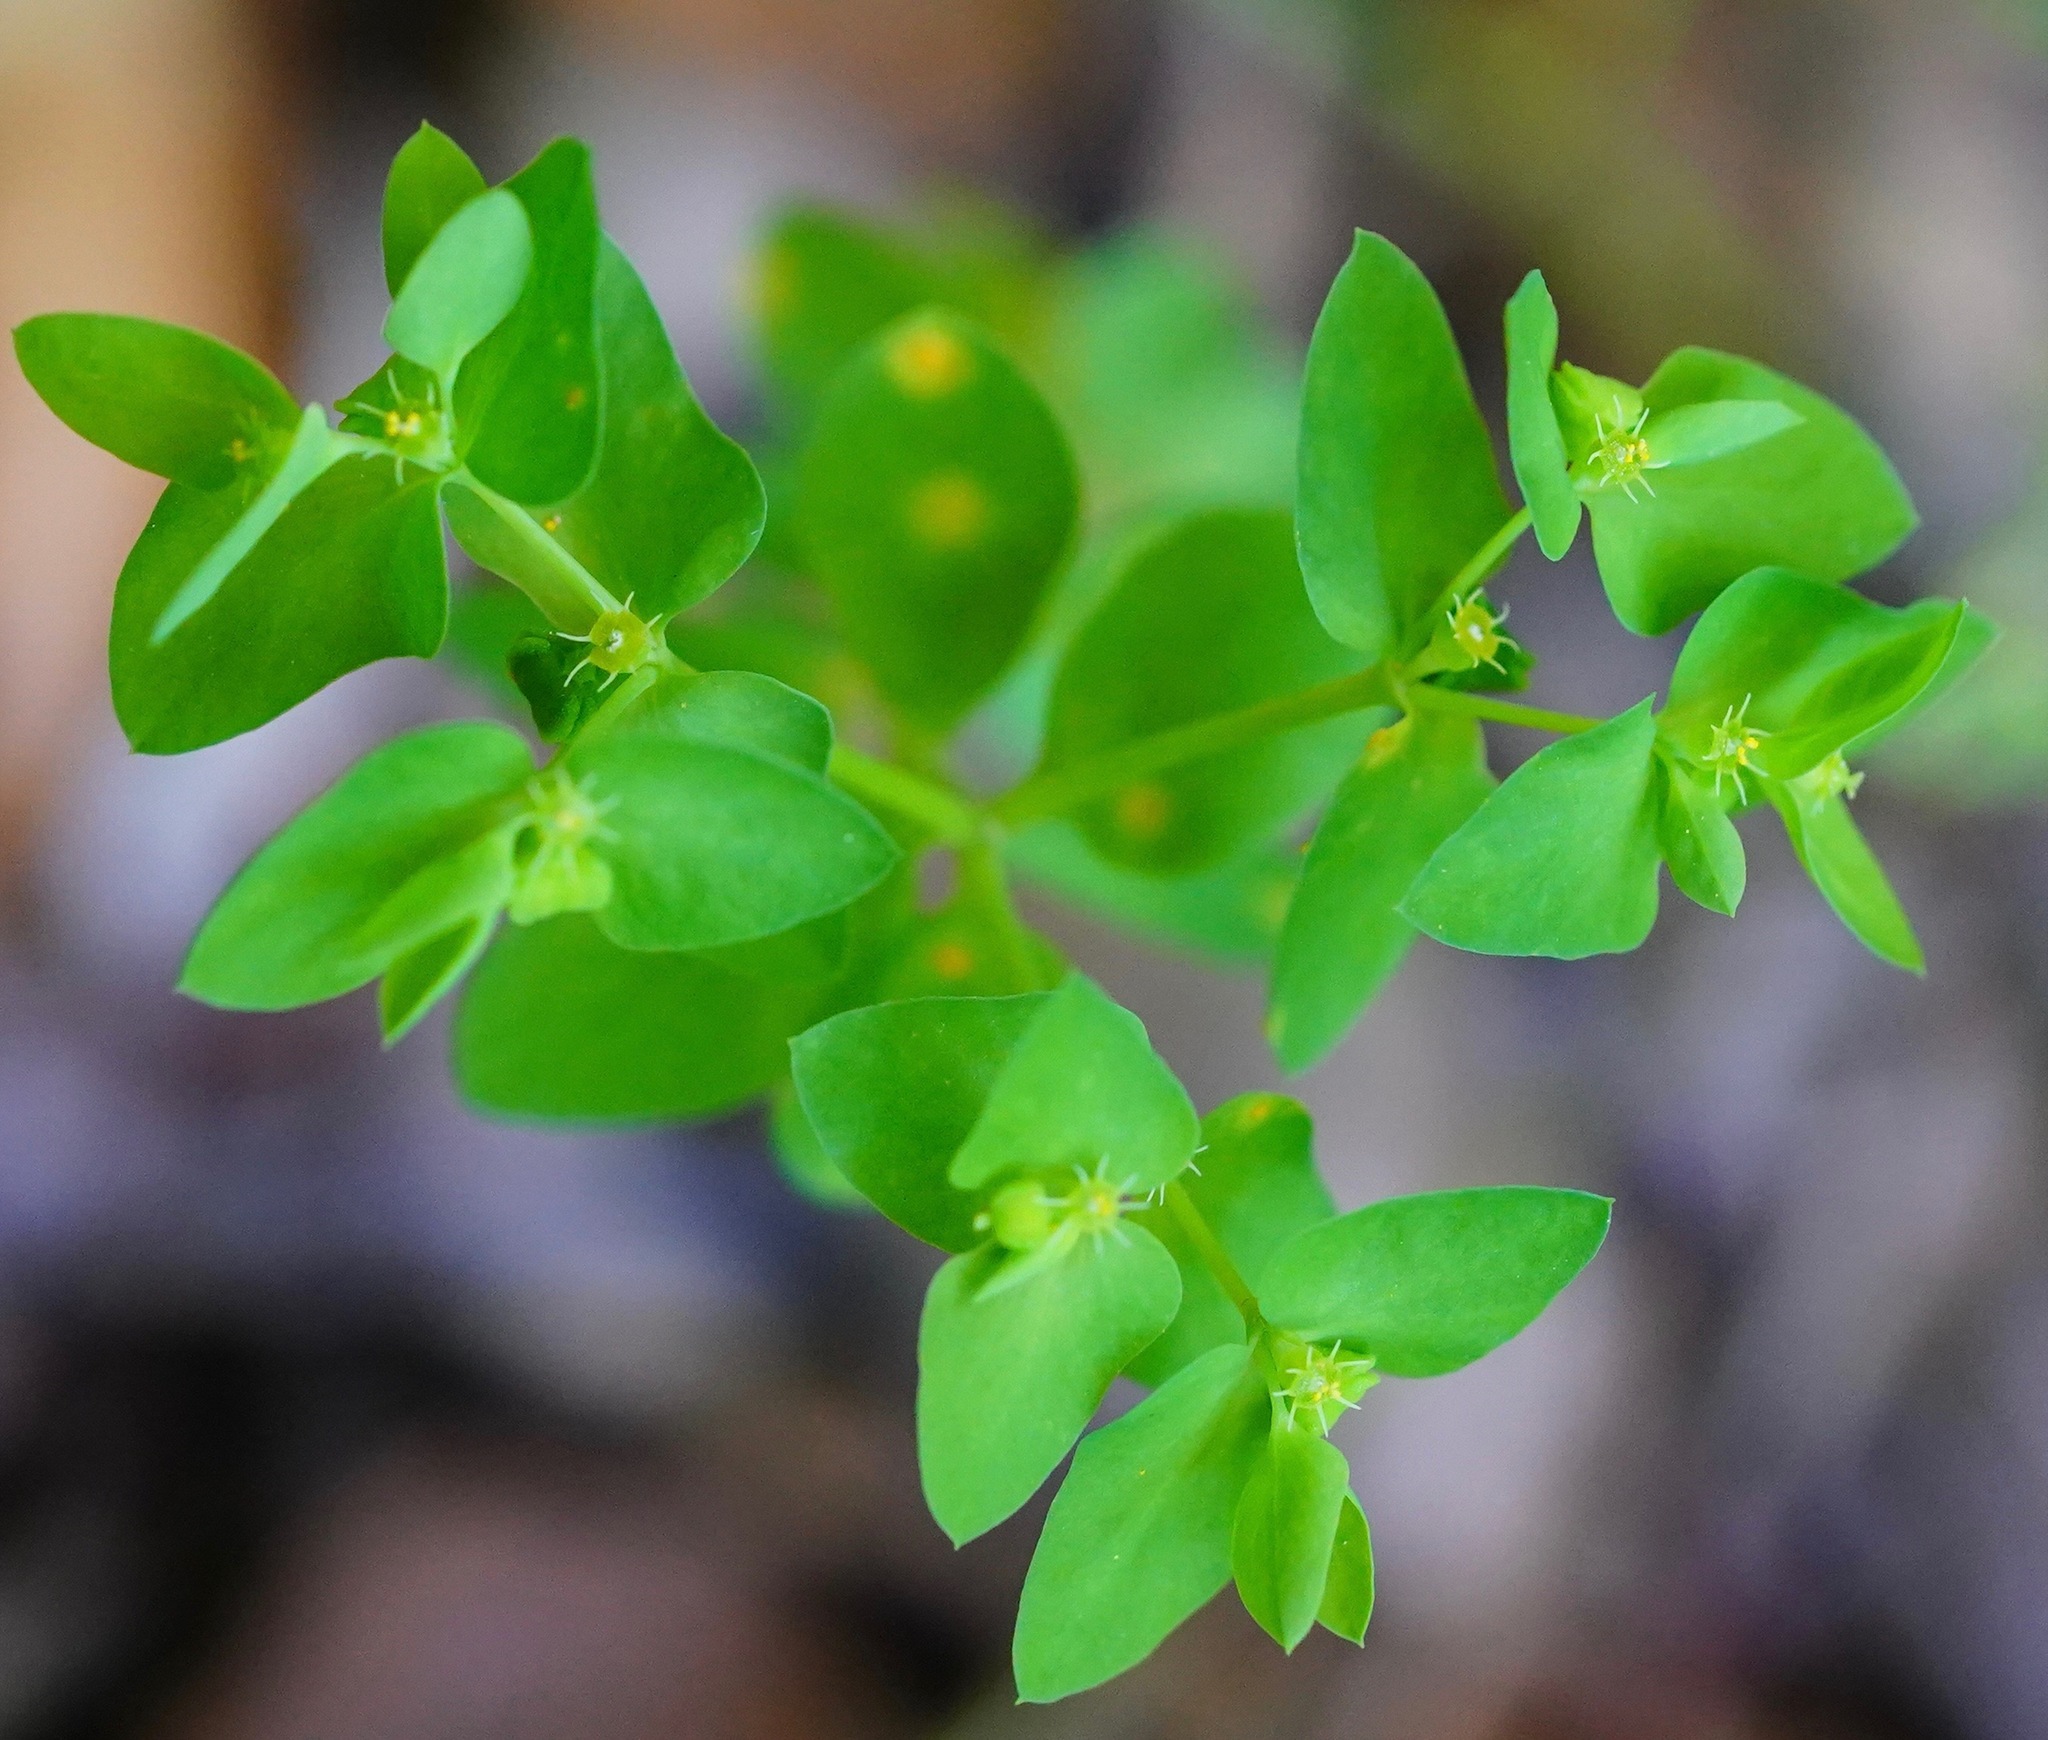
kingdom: Plantae
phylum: Tracheophyta
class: Magnoliopsida
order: Malpighiales
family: Euphorbiaceae
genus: Euphorbia
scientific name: Euphorbia peplus
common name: Petty spurge
